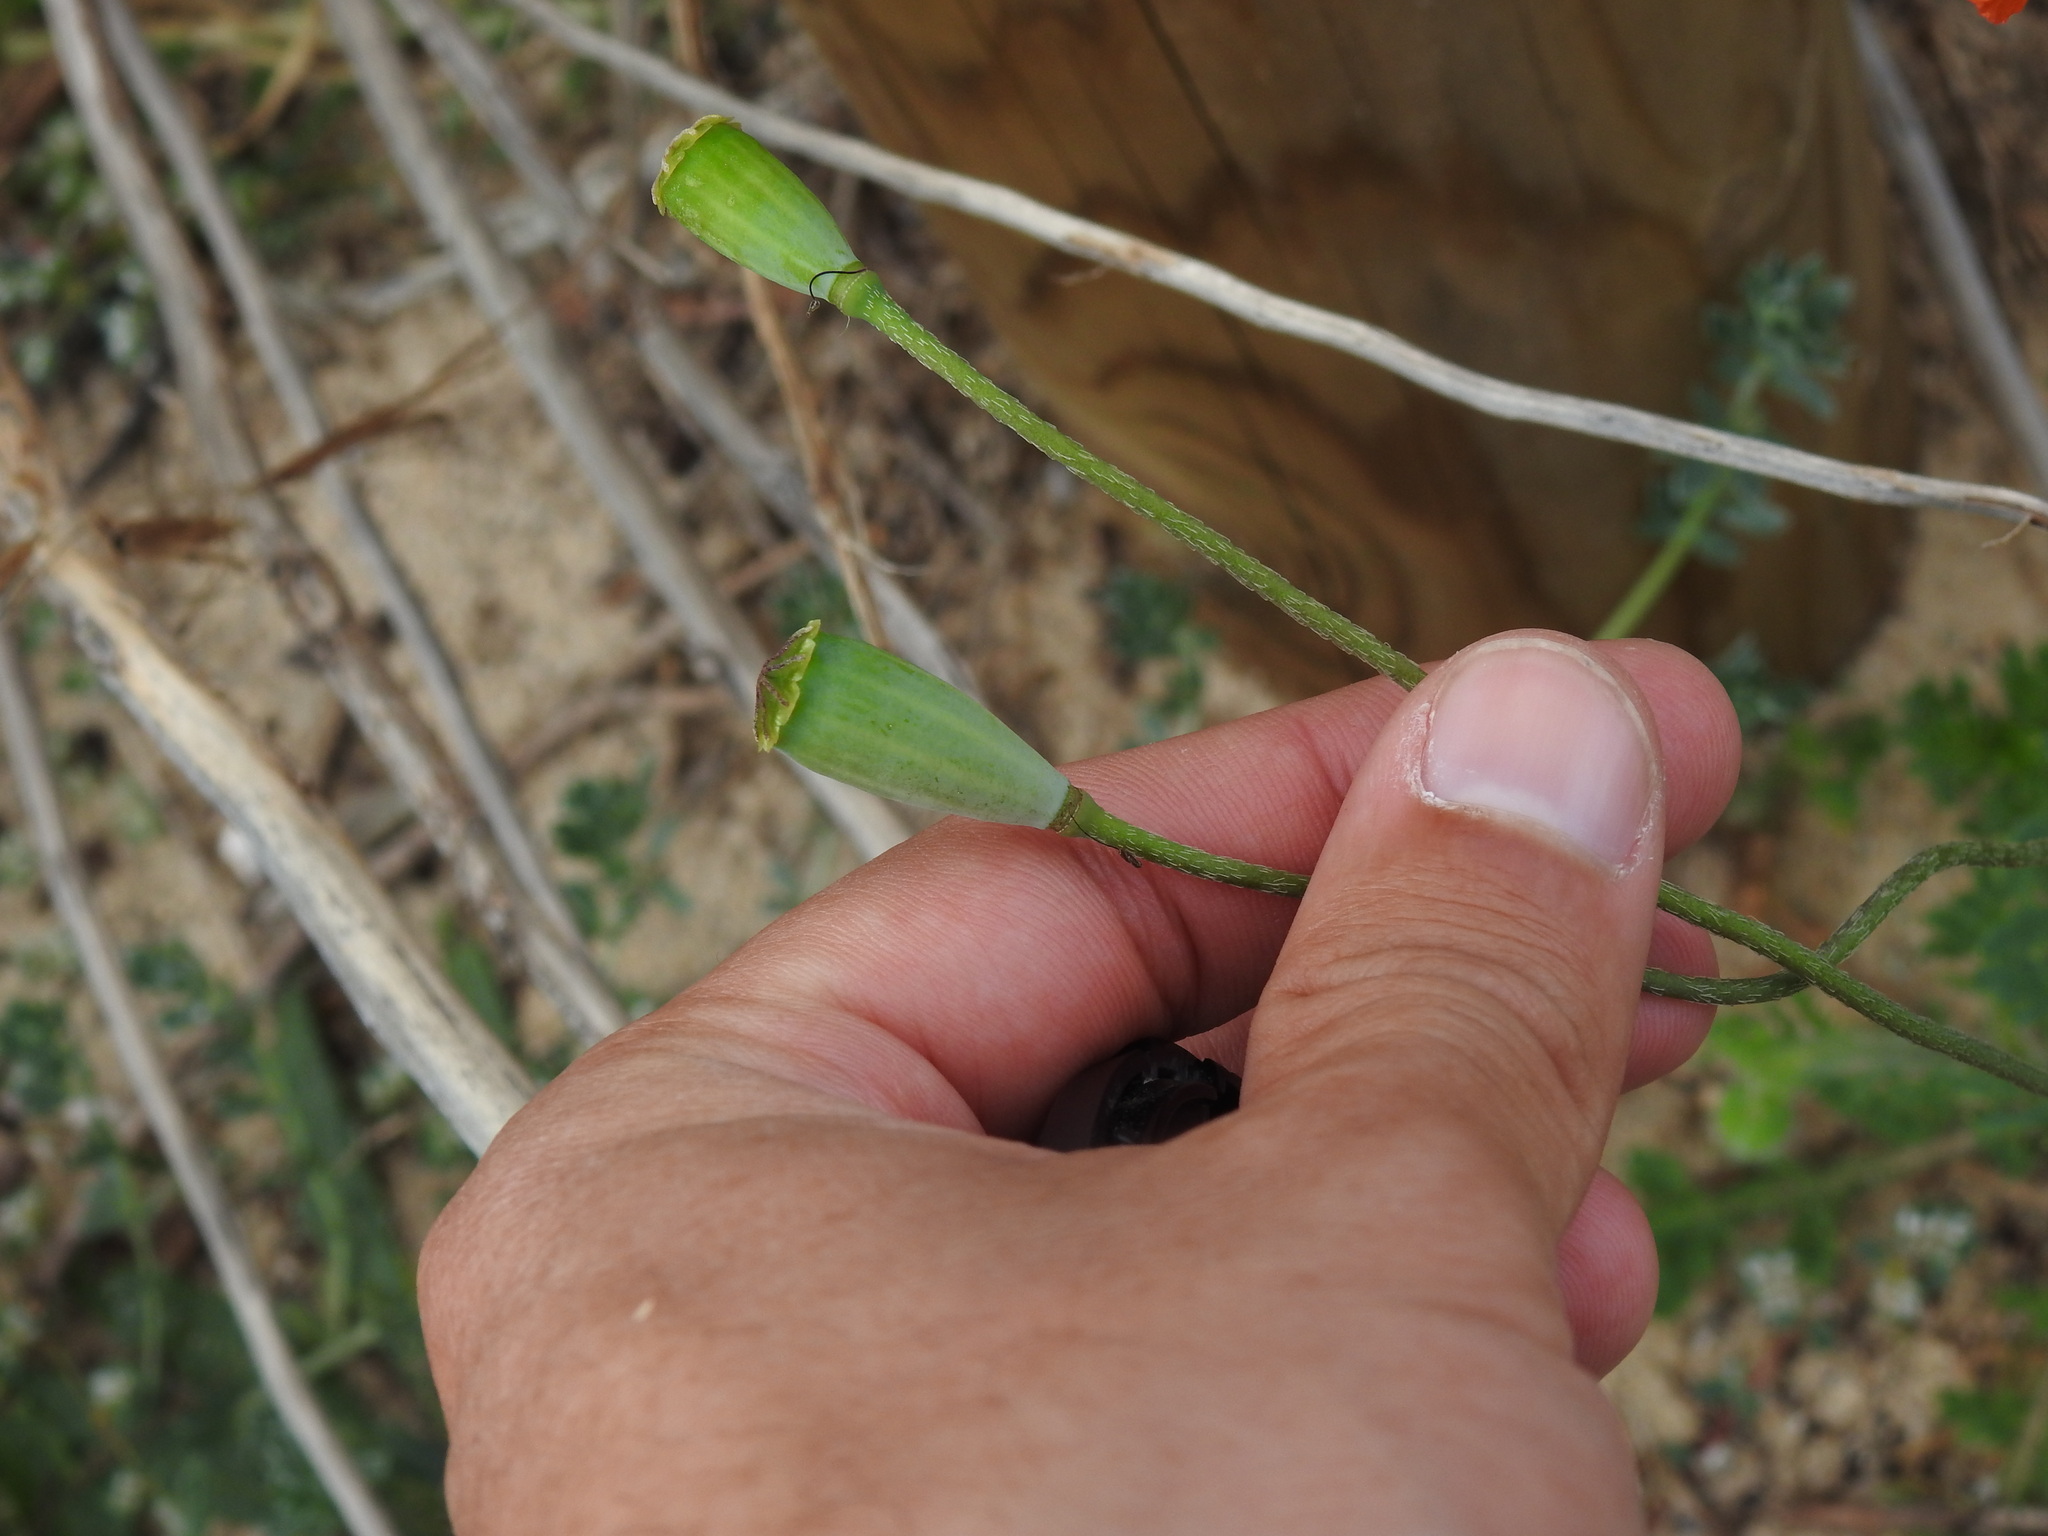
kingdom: Plantae
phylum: Tracheophyta
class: Magnoliopsida
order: Ranunculales
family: Papaveraceae
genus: Papaver
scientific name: Papaver dubium
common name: Long-headed poppy
